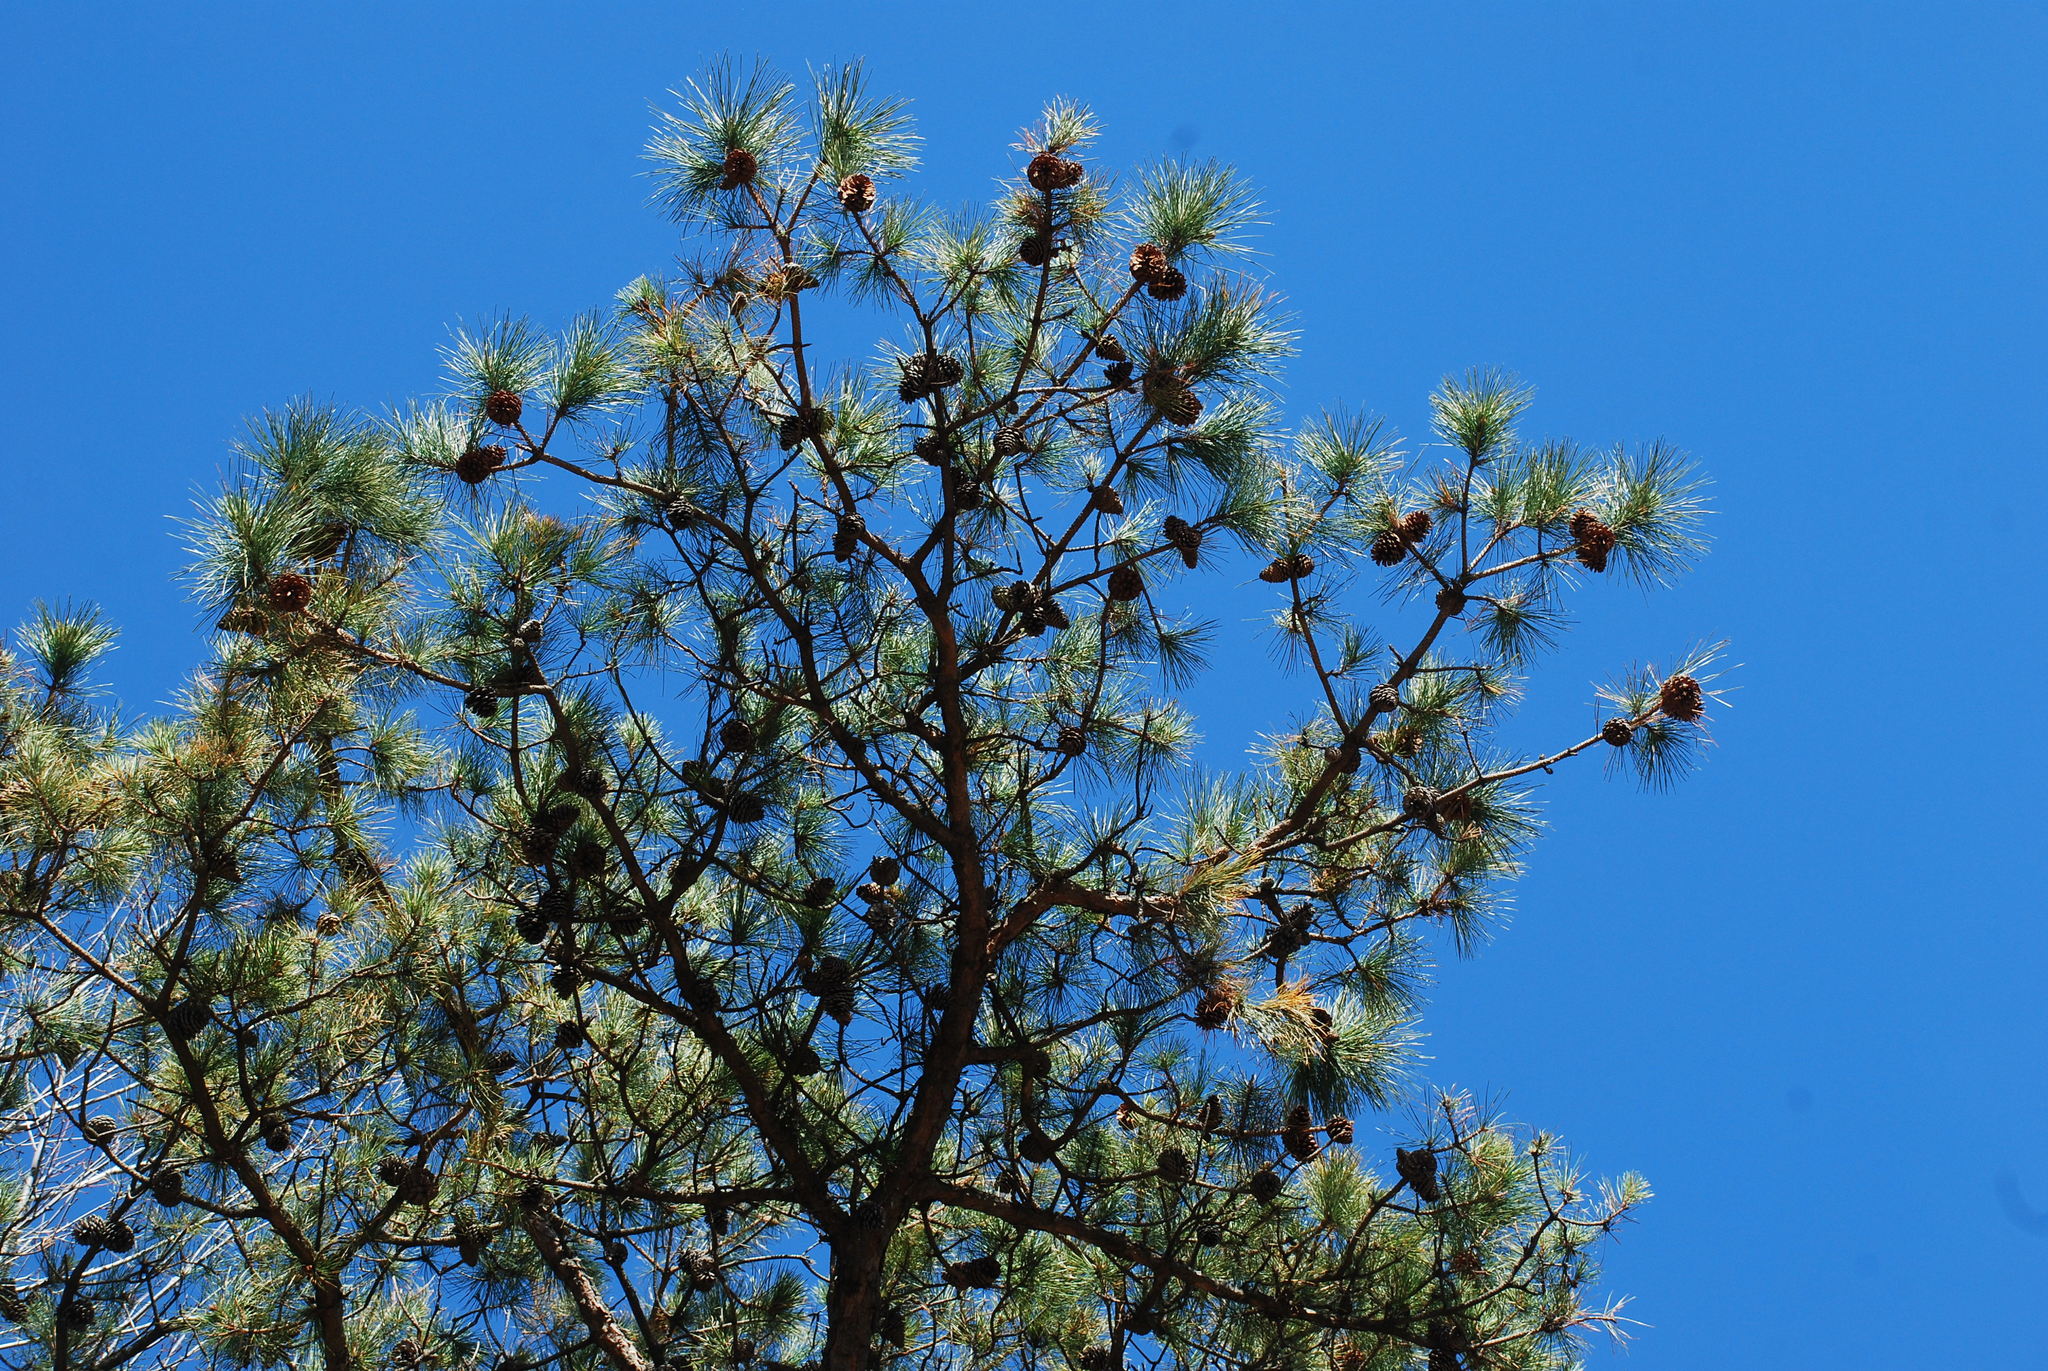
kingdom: Plantae
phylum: Tracheophyta
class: Pinopsida
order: Pinales
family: Pinaceae
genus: Pinus
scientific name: Pinus rigida
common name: Pitch pine
